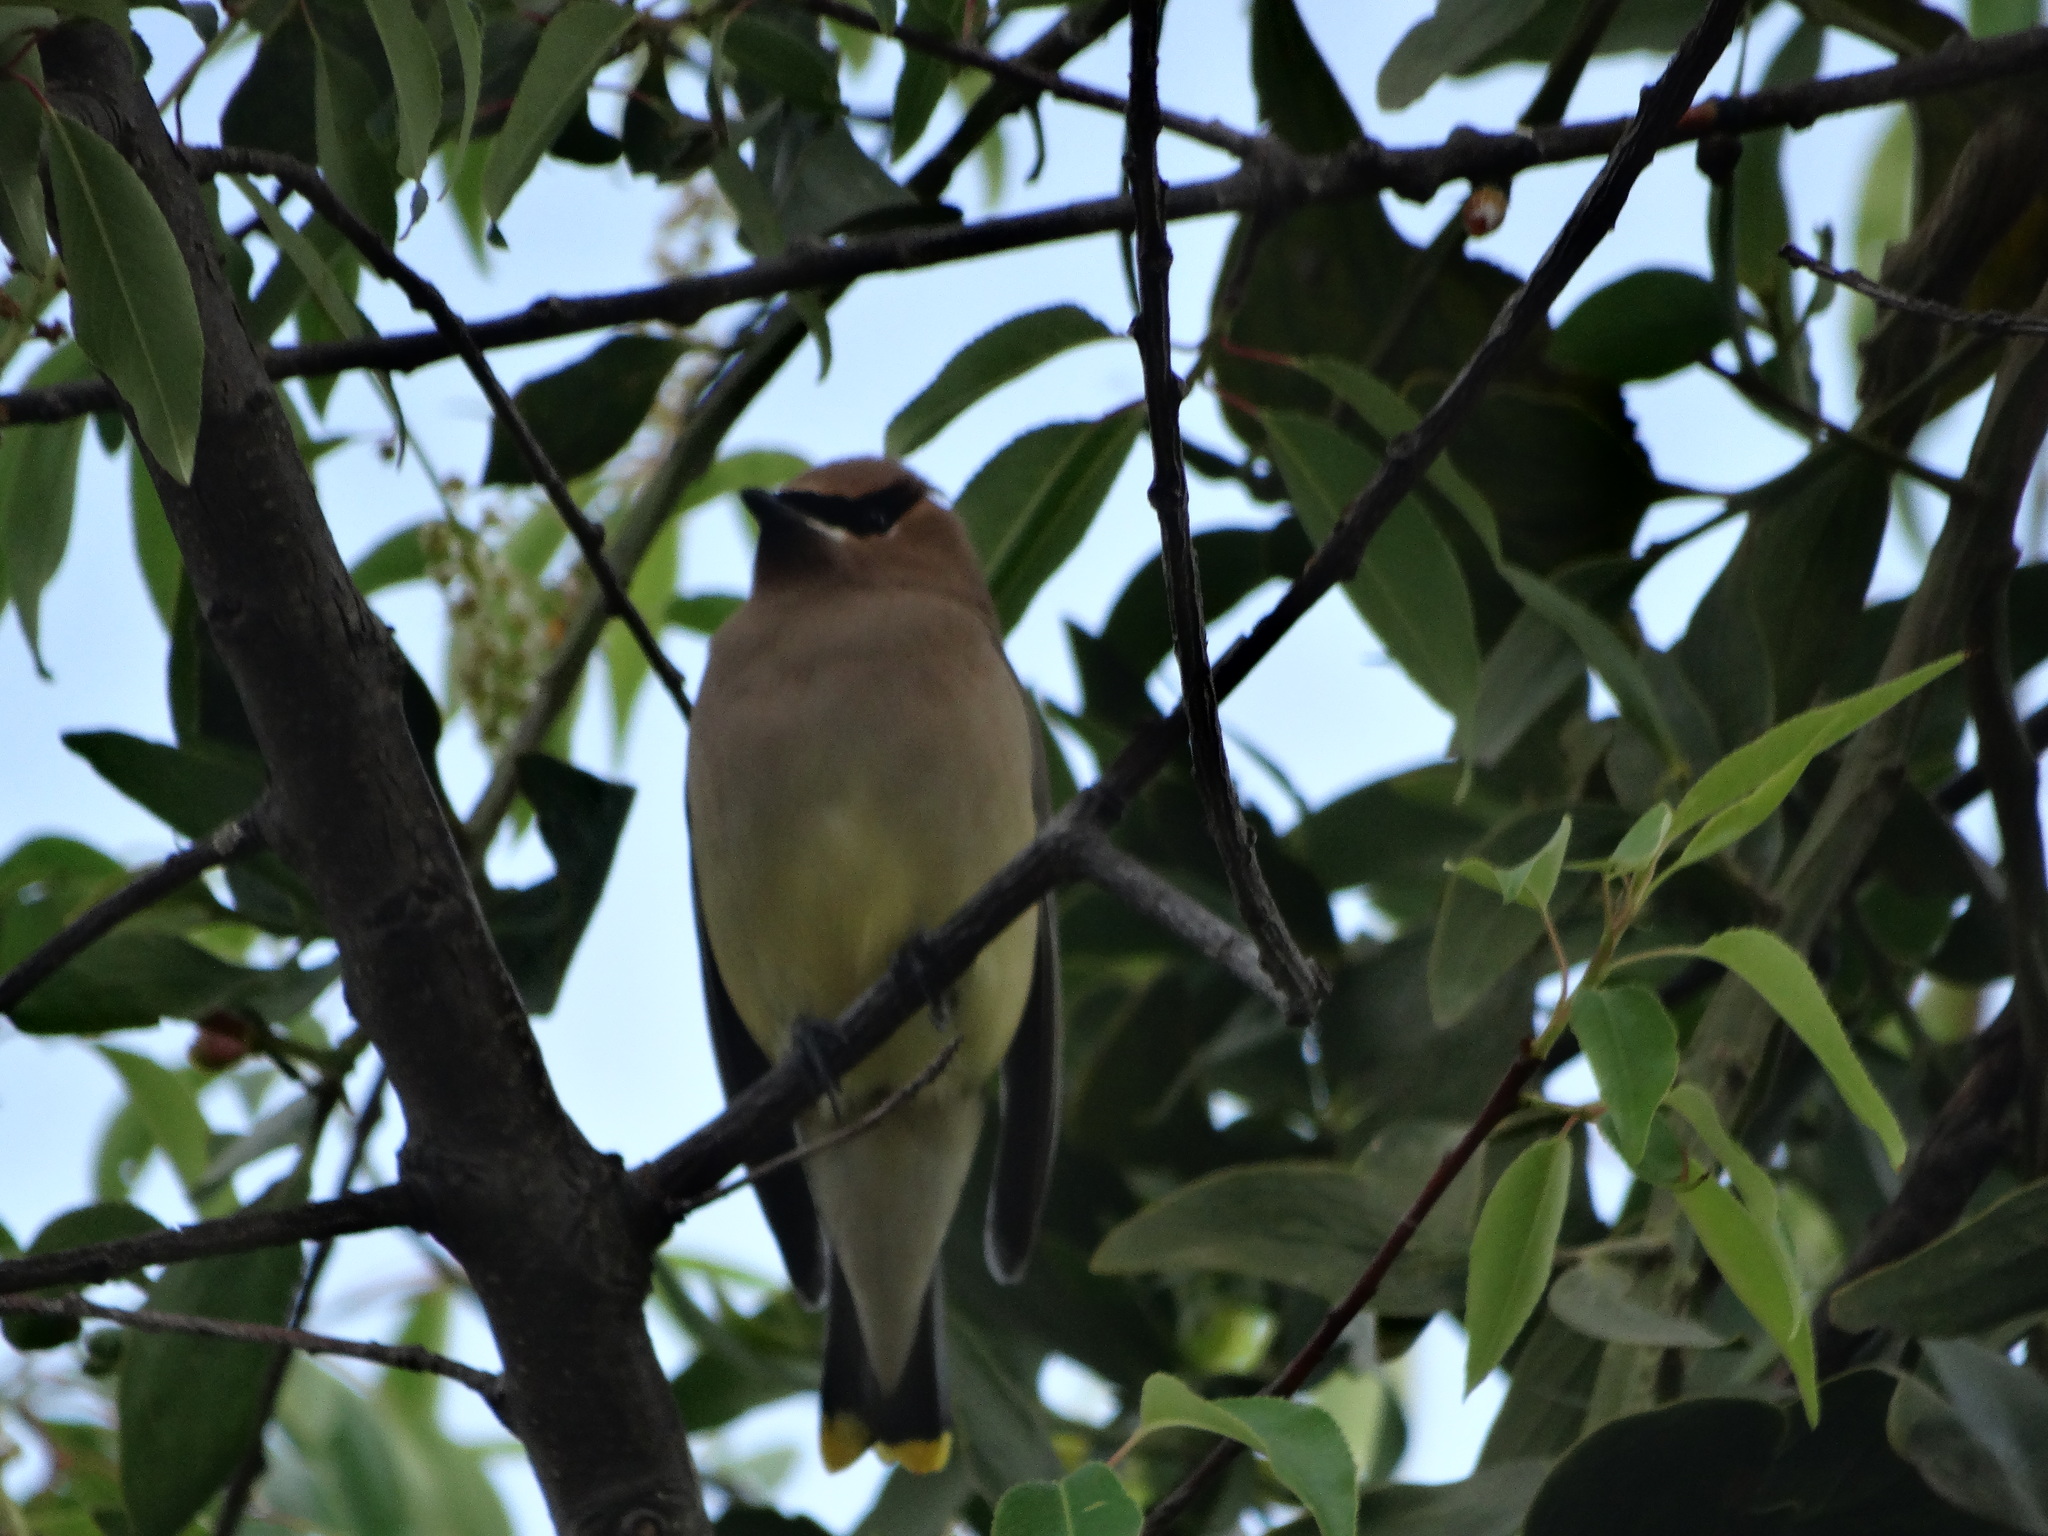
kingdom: Animalia
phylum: Chordata
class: Aves
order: Passeriformes
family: Bombycillidae
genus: Bombycilla
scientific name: Bombycilla cedrorum
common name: Cedar waxwing
